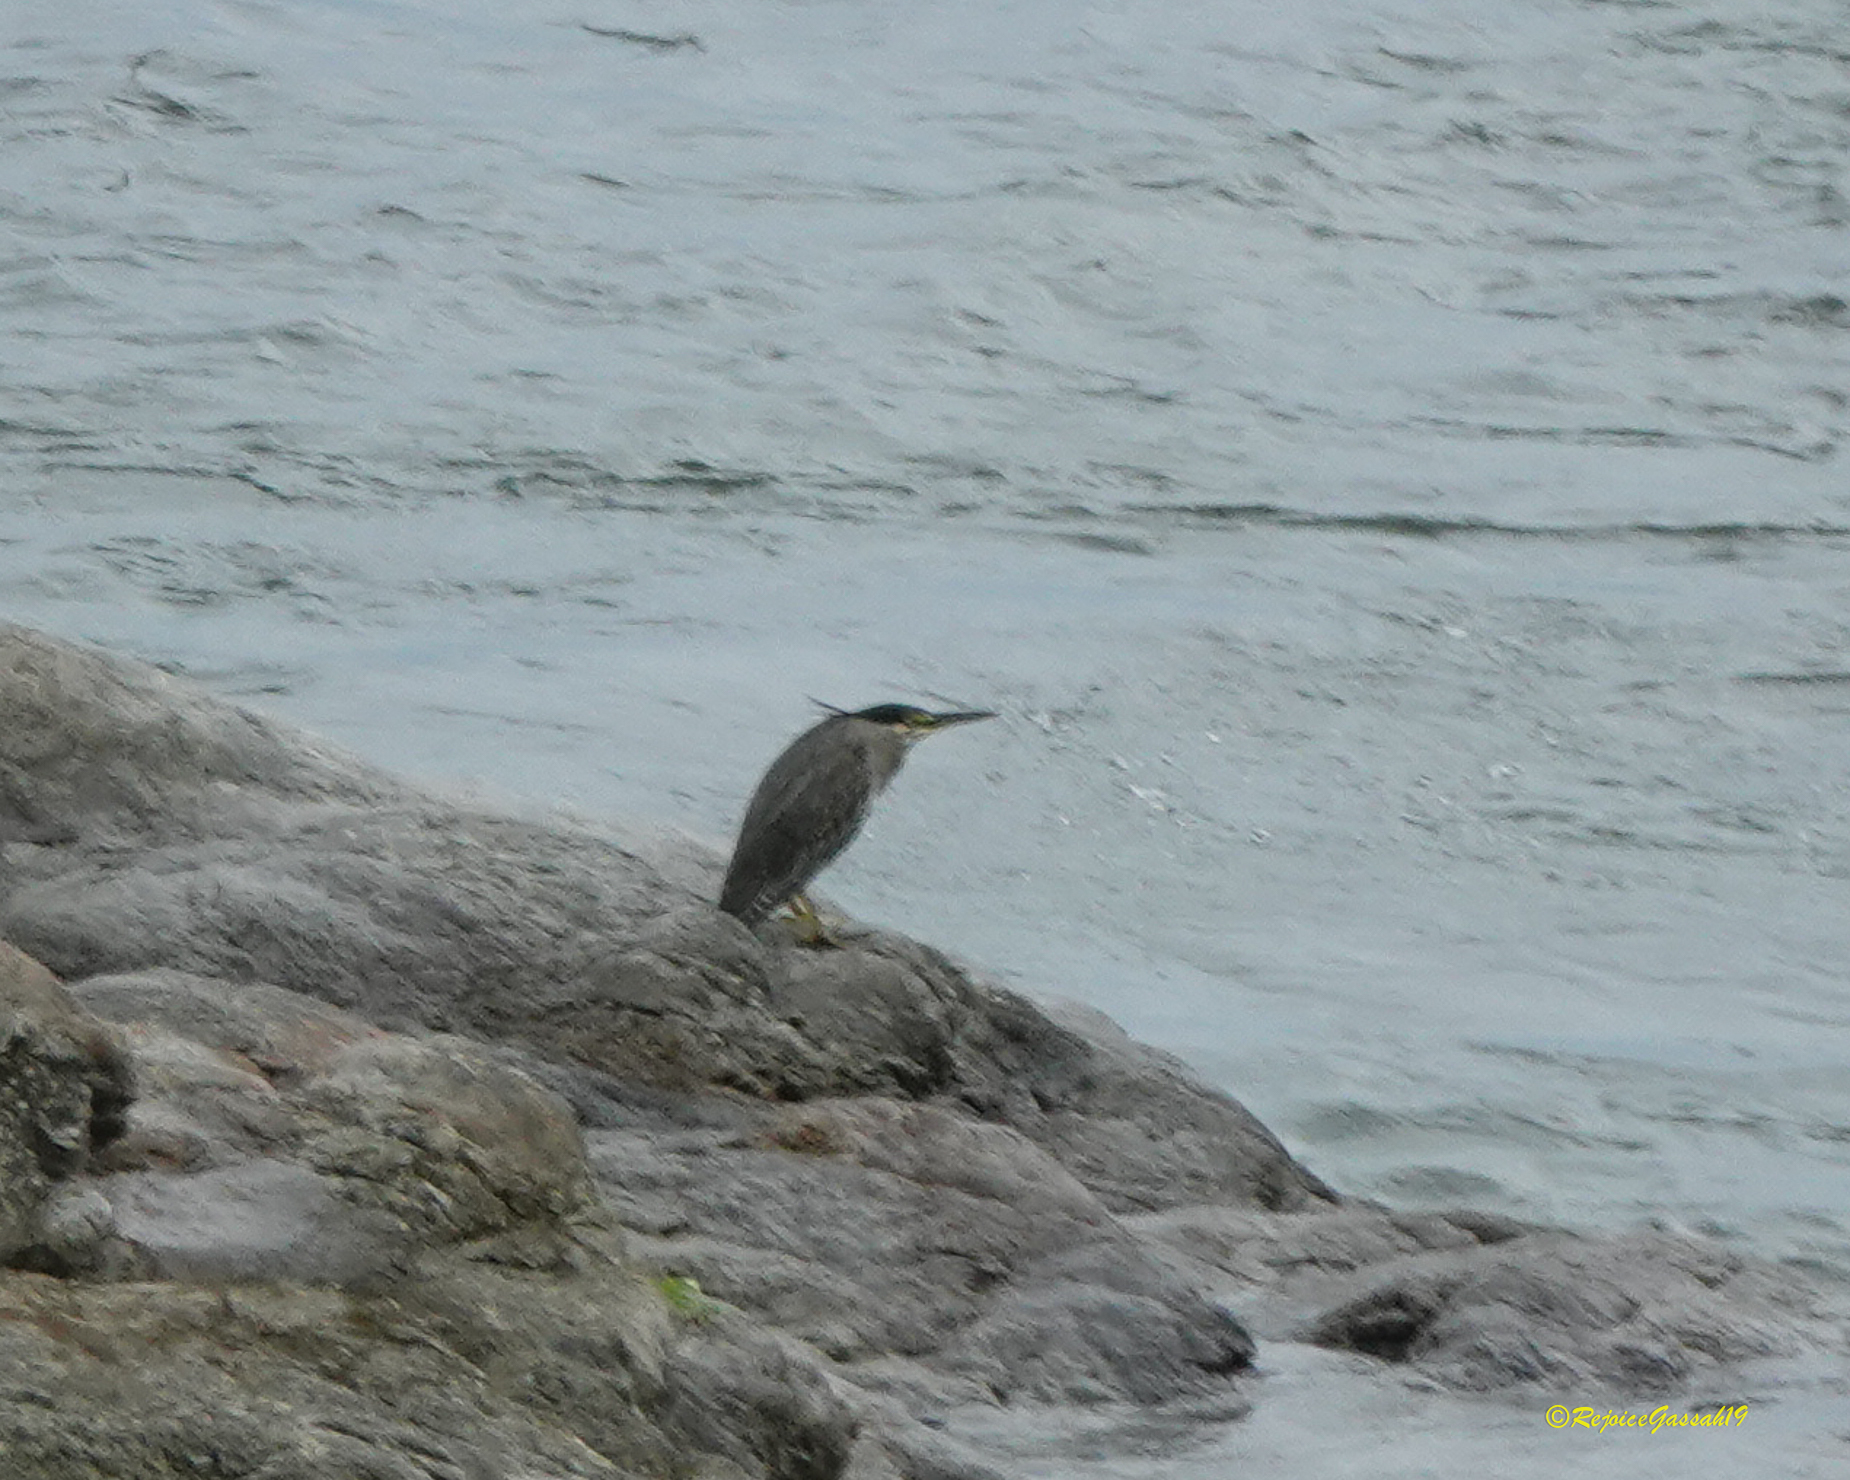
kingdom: Animalia
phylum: Chordata
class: Aves
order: Pelecaniformes
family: Ardeidae
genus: Butorides
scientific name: Butorides striata
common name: Striated heron
